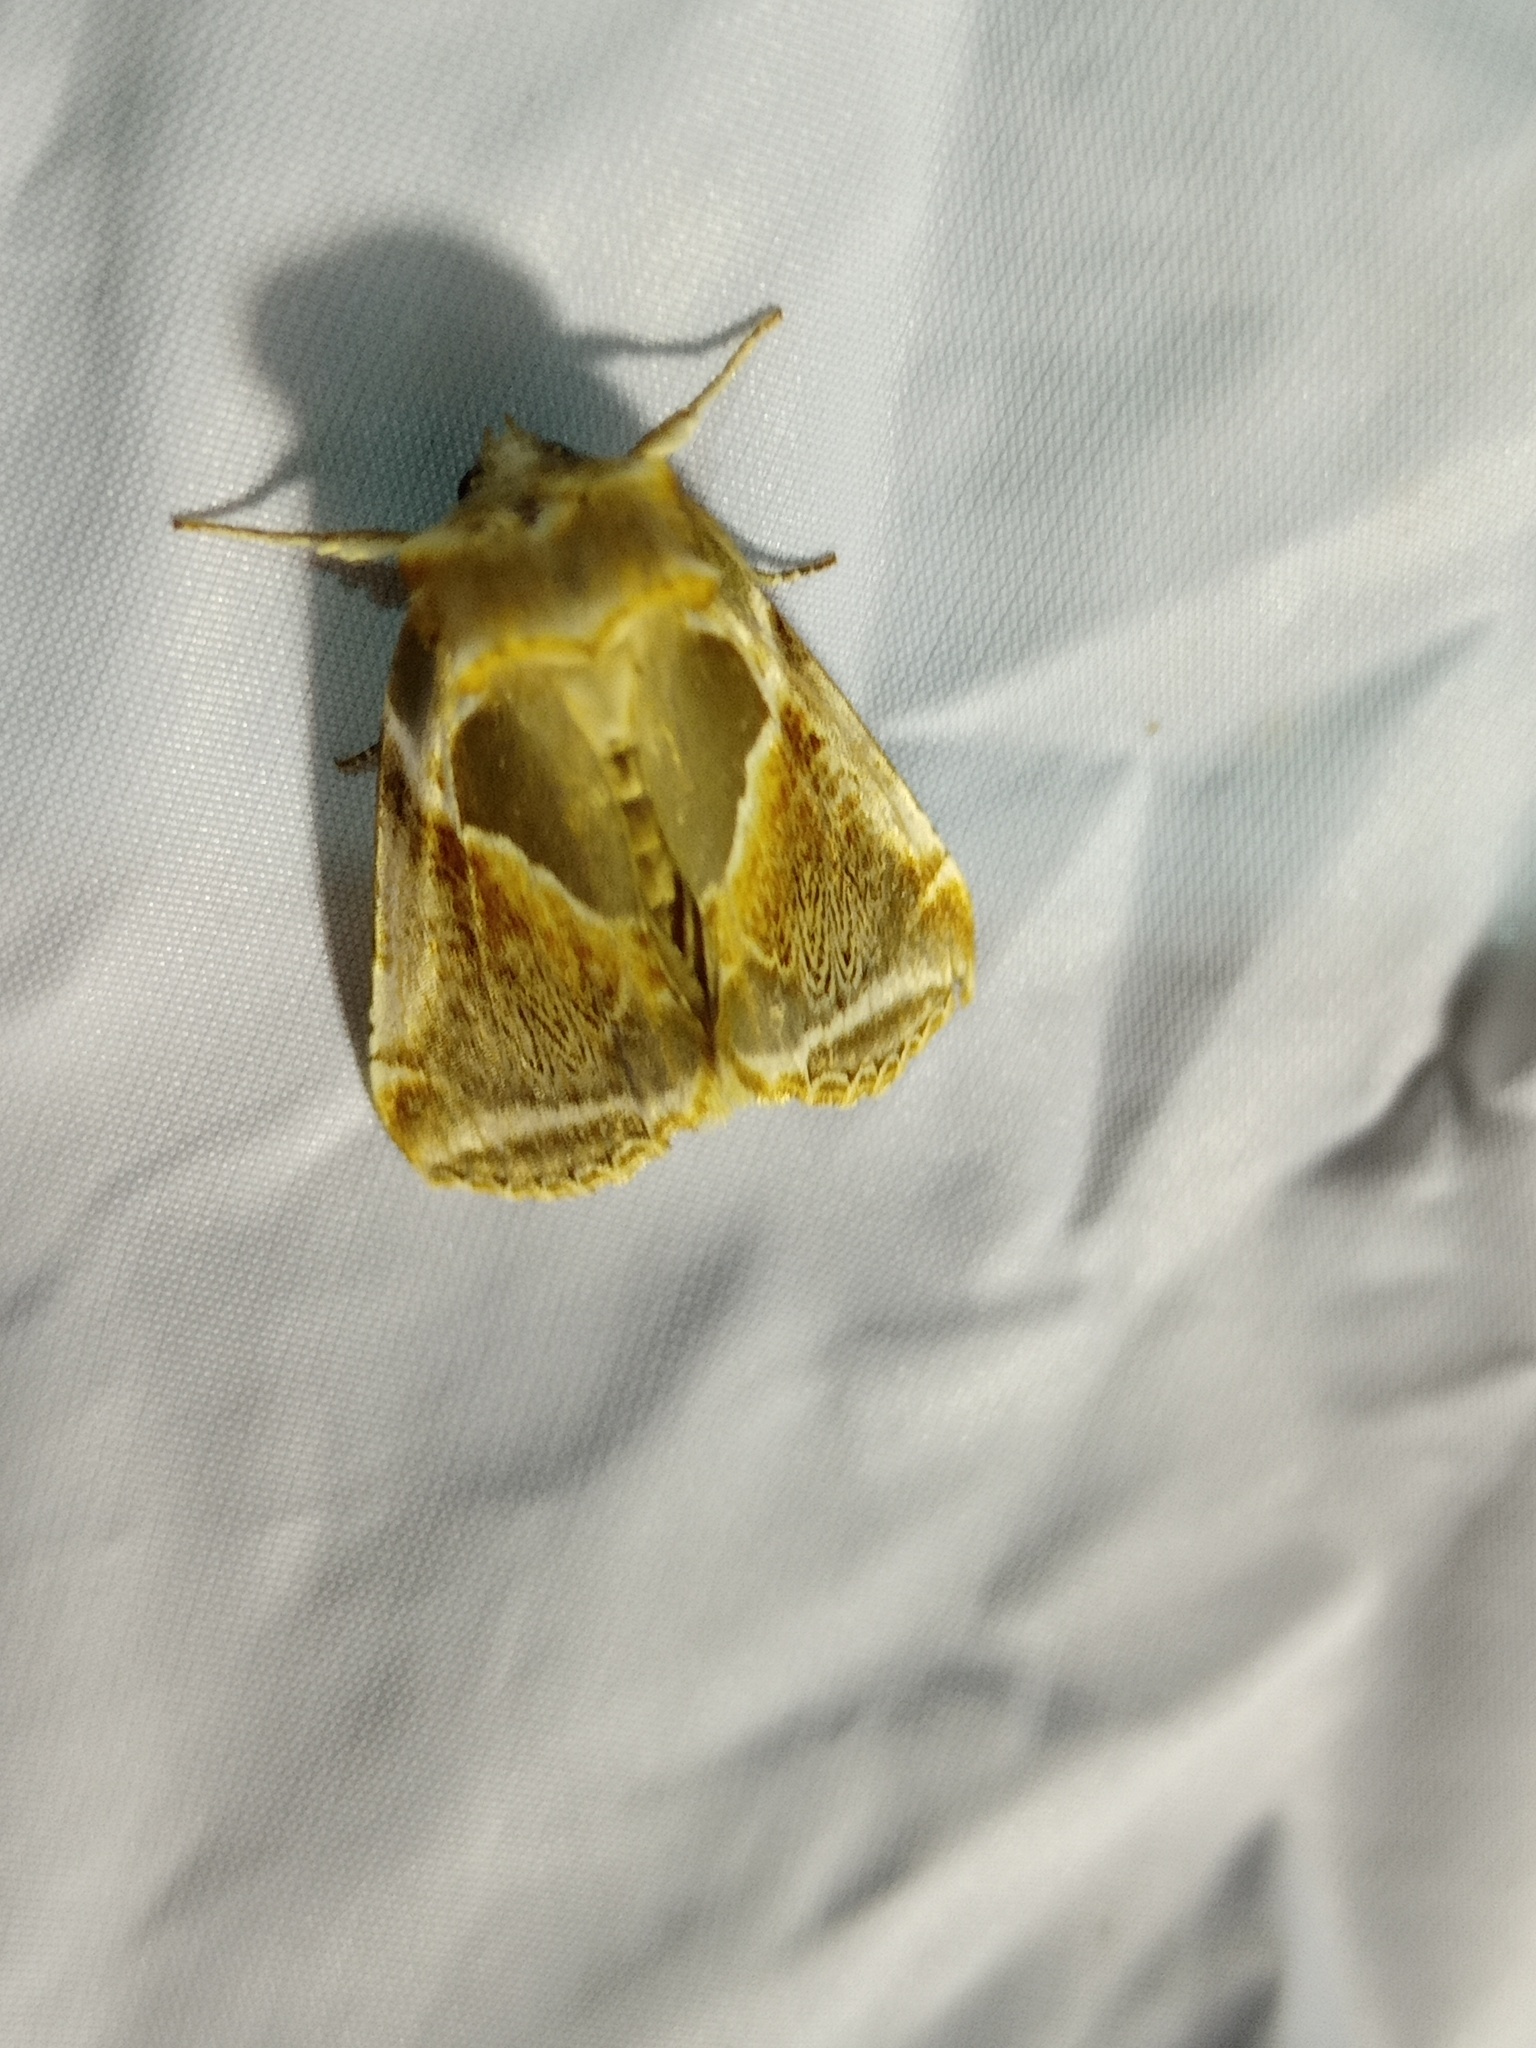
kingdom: Animalia
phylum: Arthropoda
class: Insecta
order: Lepidoptera
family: Drepanidae
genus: Habrosyne
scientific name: Habrosyne pyritoides
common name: Buff arches
